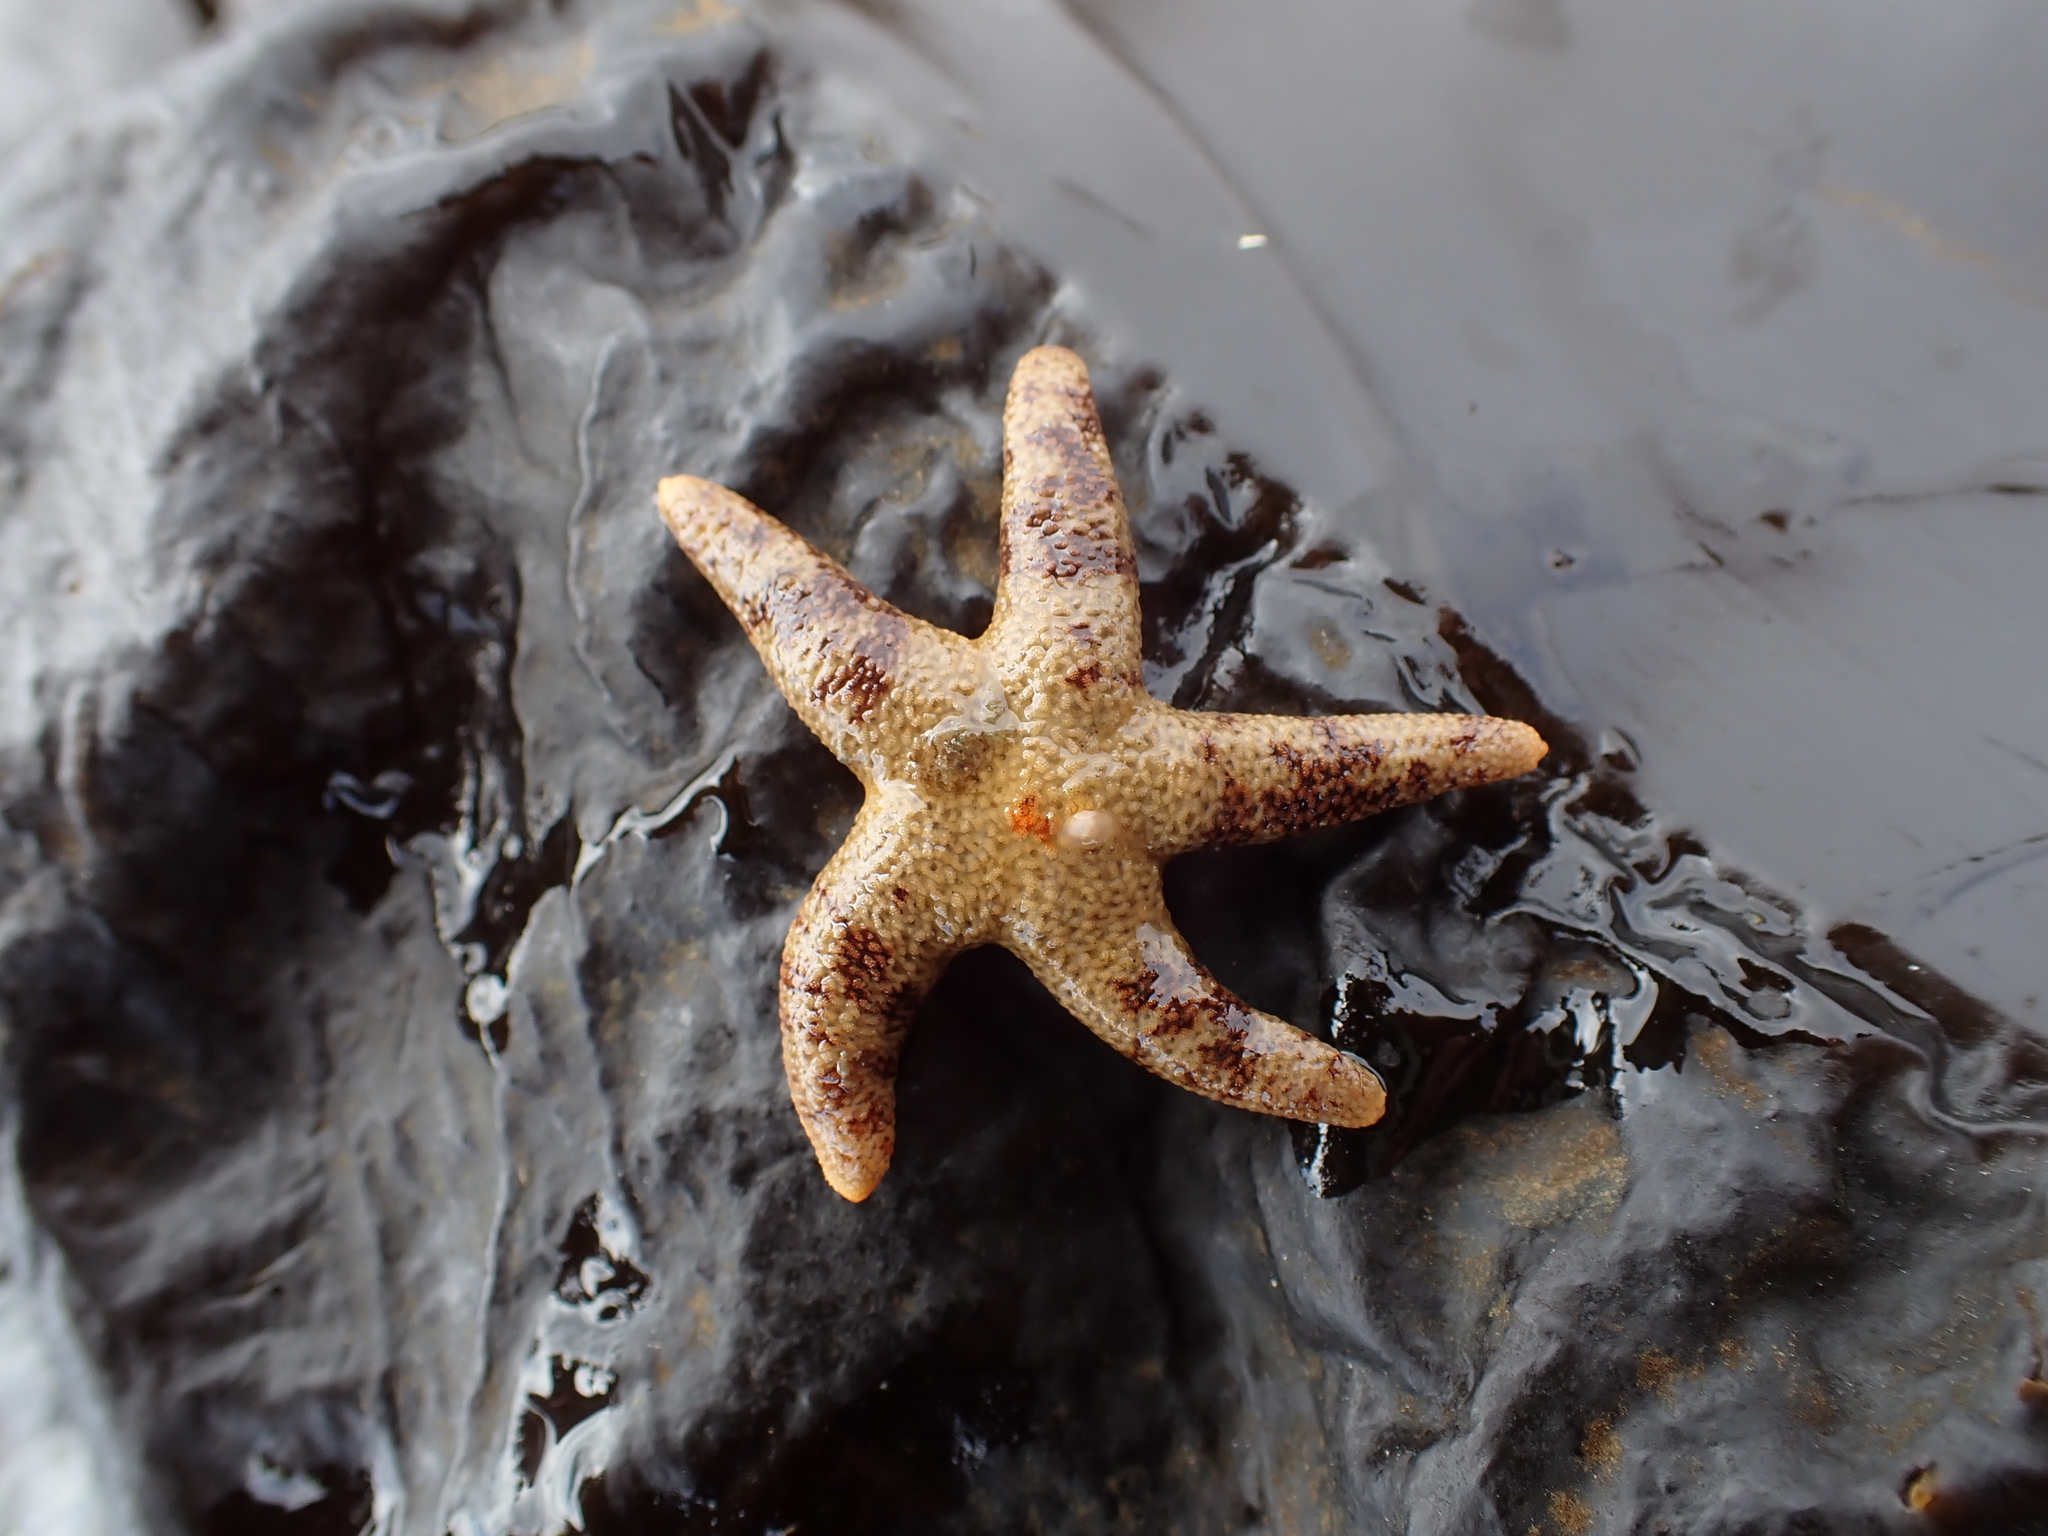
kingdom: Animalia
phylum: Echinodermata
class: Asteroidea
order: Spinulosida
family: Echinasteridae
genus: Henricia
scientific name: Henricia pumila
